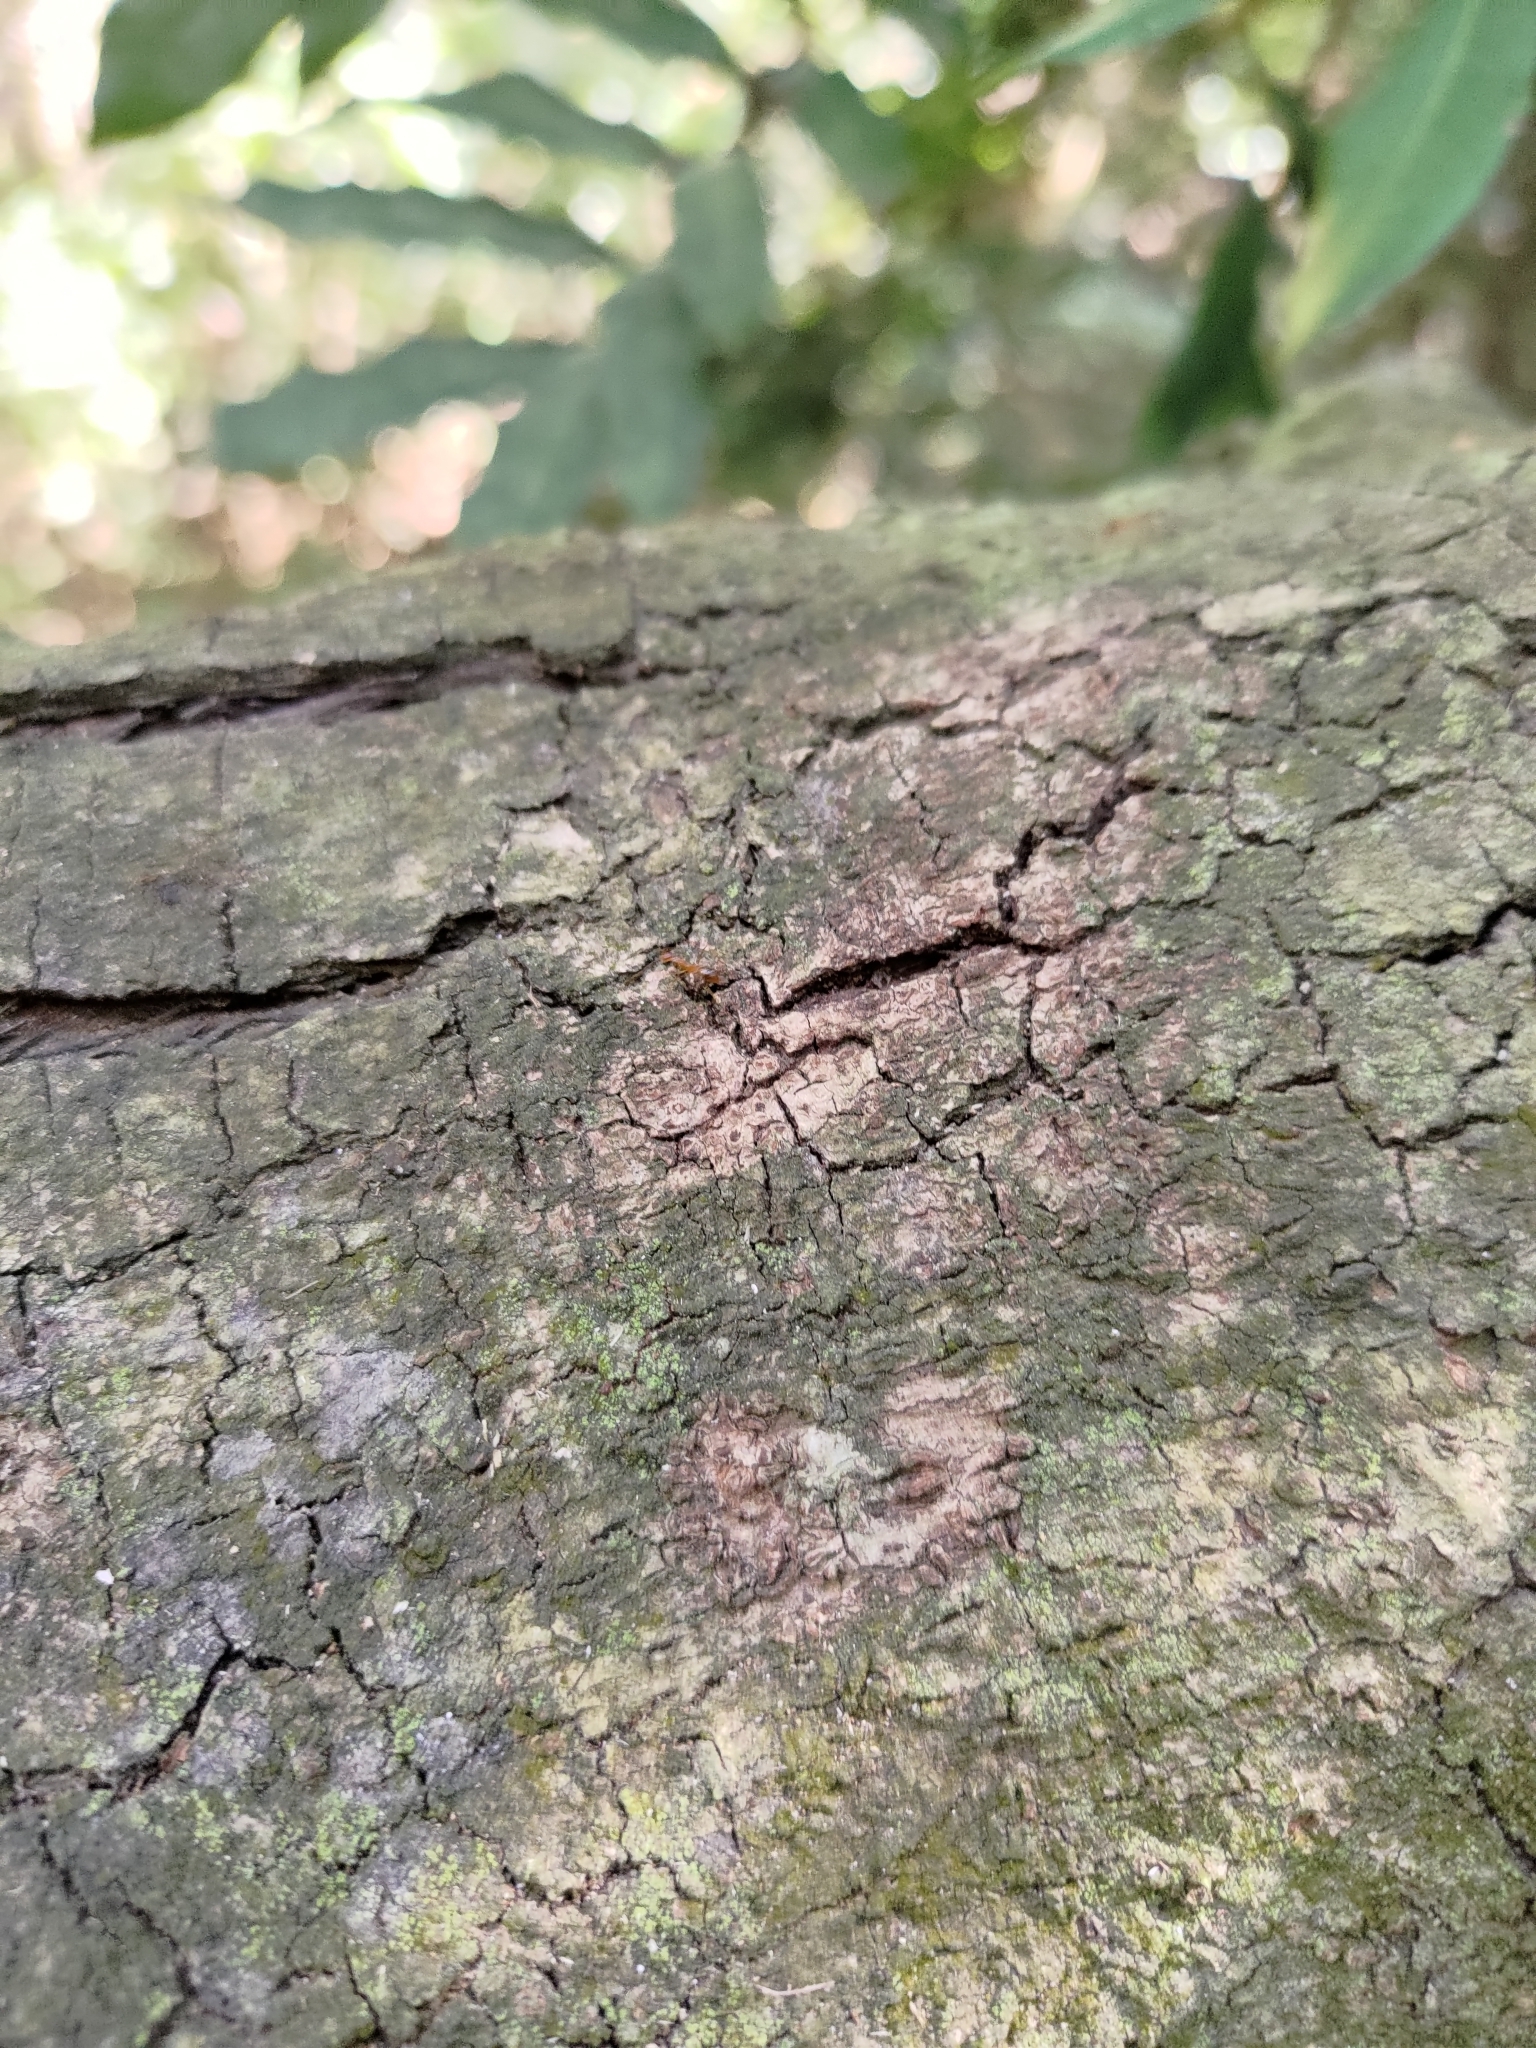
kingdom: Animalia
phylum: Arthropoda
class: Insecta
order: Hymenoptera
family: Formicidae
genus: Anoplolepis
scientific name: Anoplolepis gracilipes
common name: Ant
